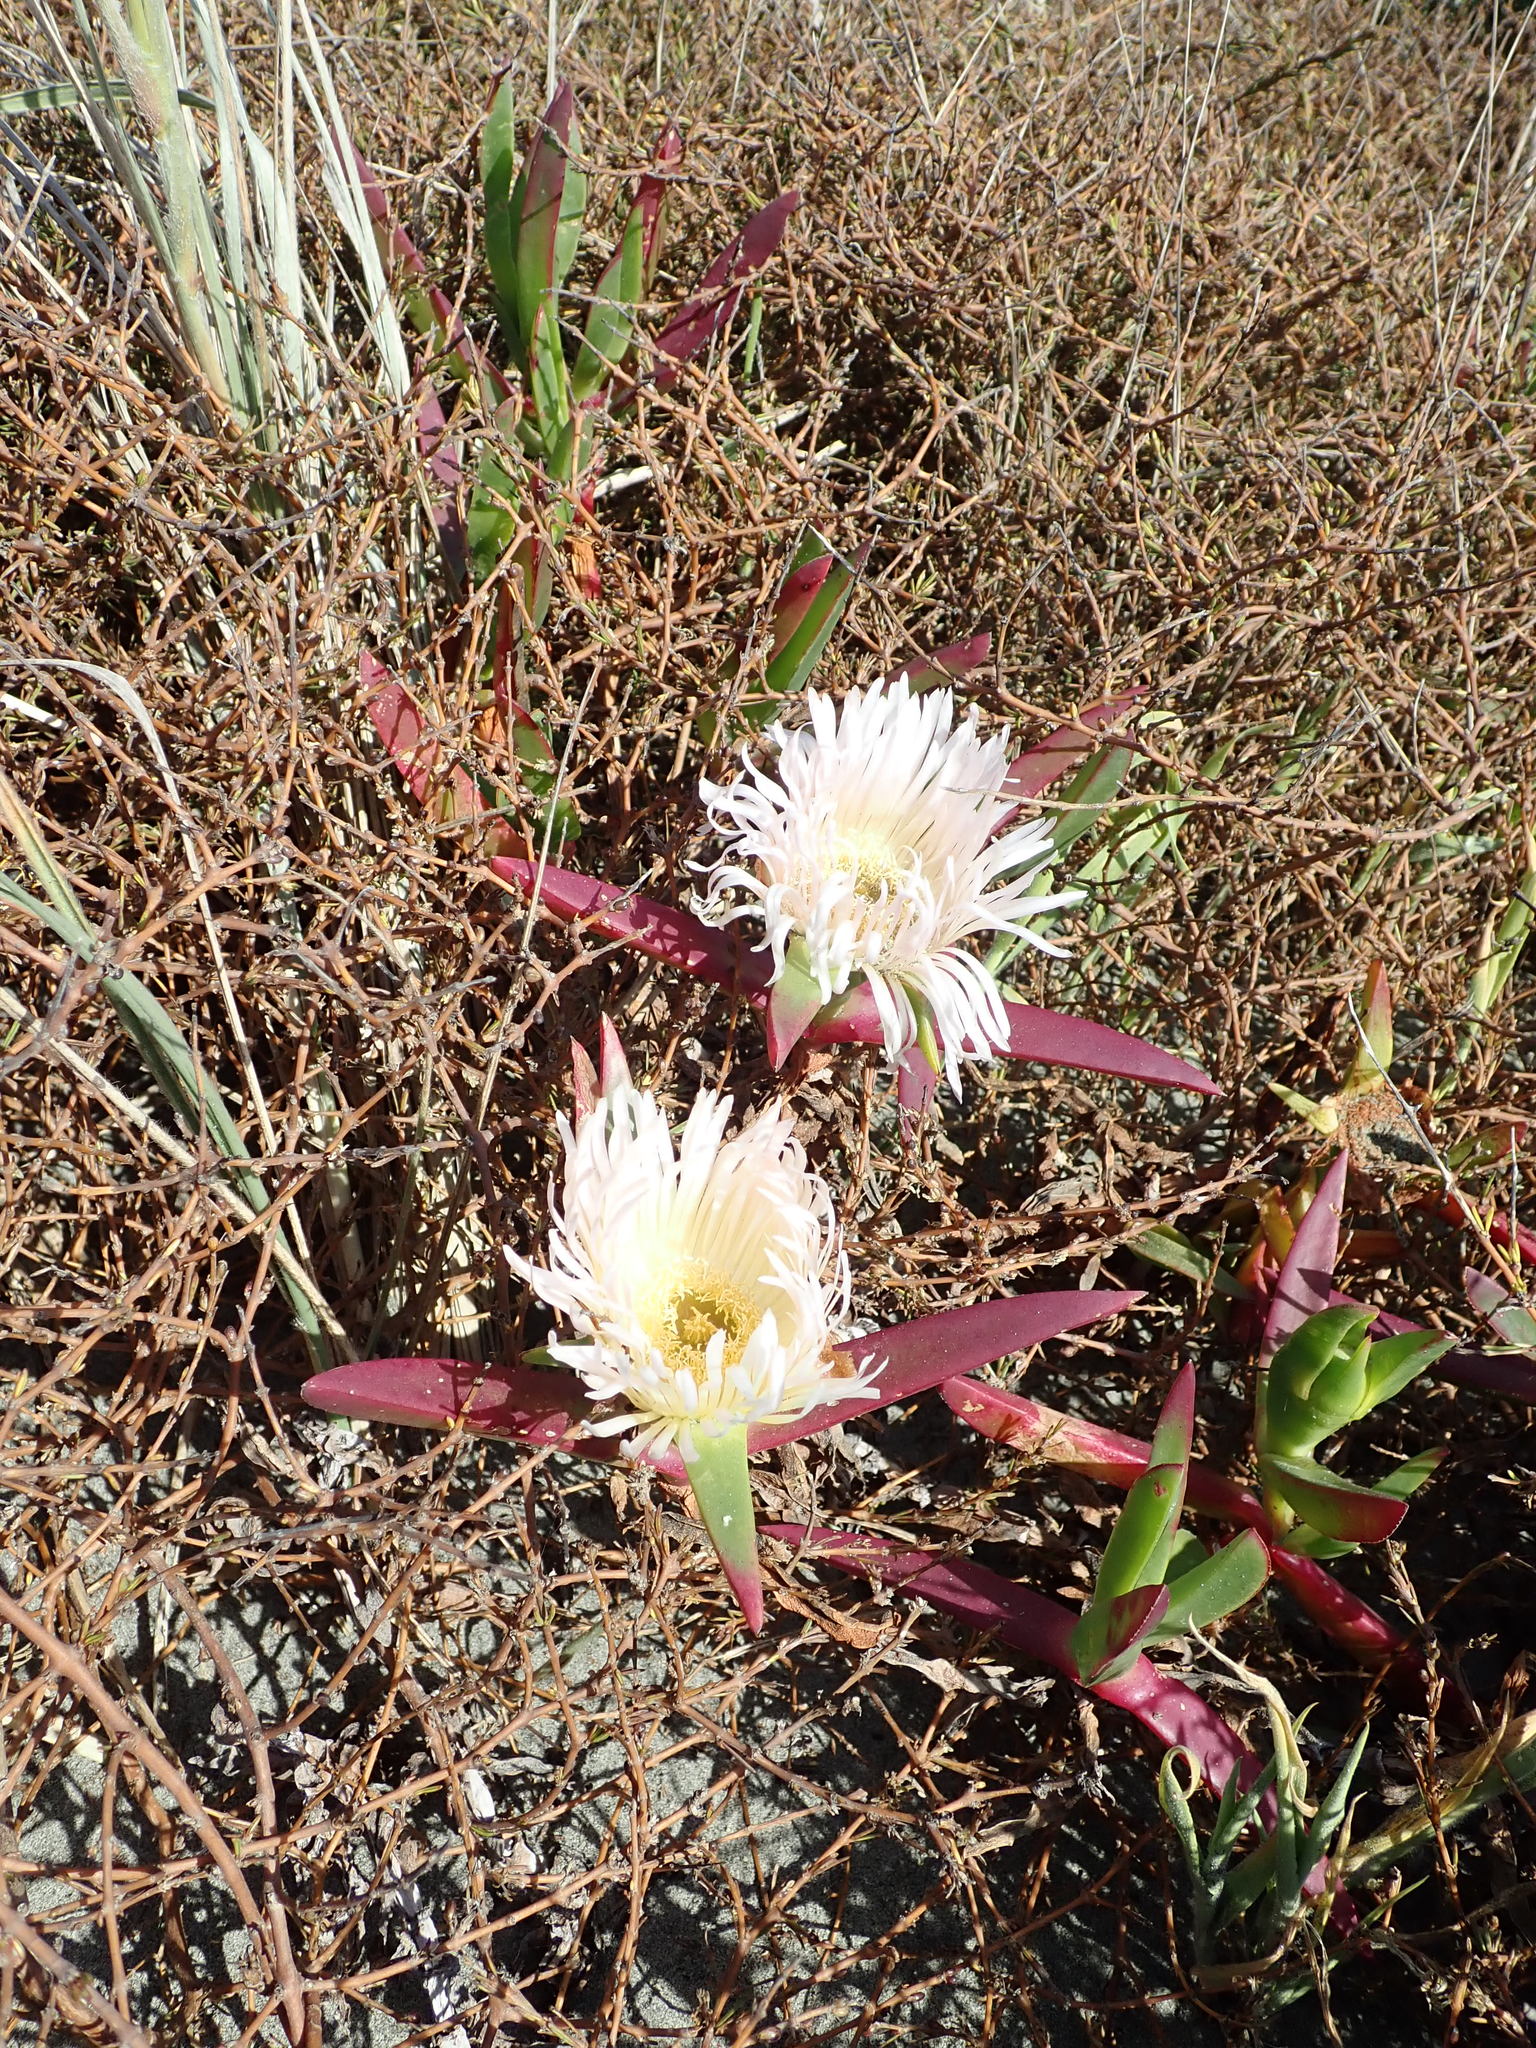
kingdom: Plantae
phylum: Tracheophyta
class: Magnoliopsida
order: Caryophyllales
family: Aizoaceae
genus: Carpobrotus
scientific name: Carpobrotus edulis
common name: Hottentot-fig
